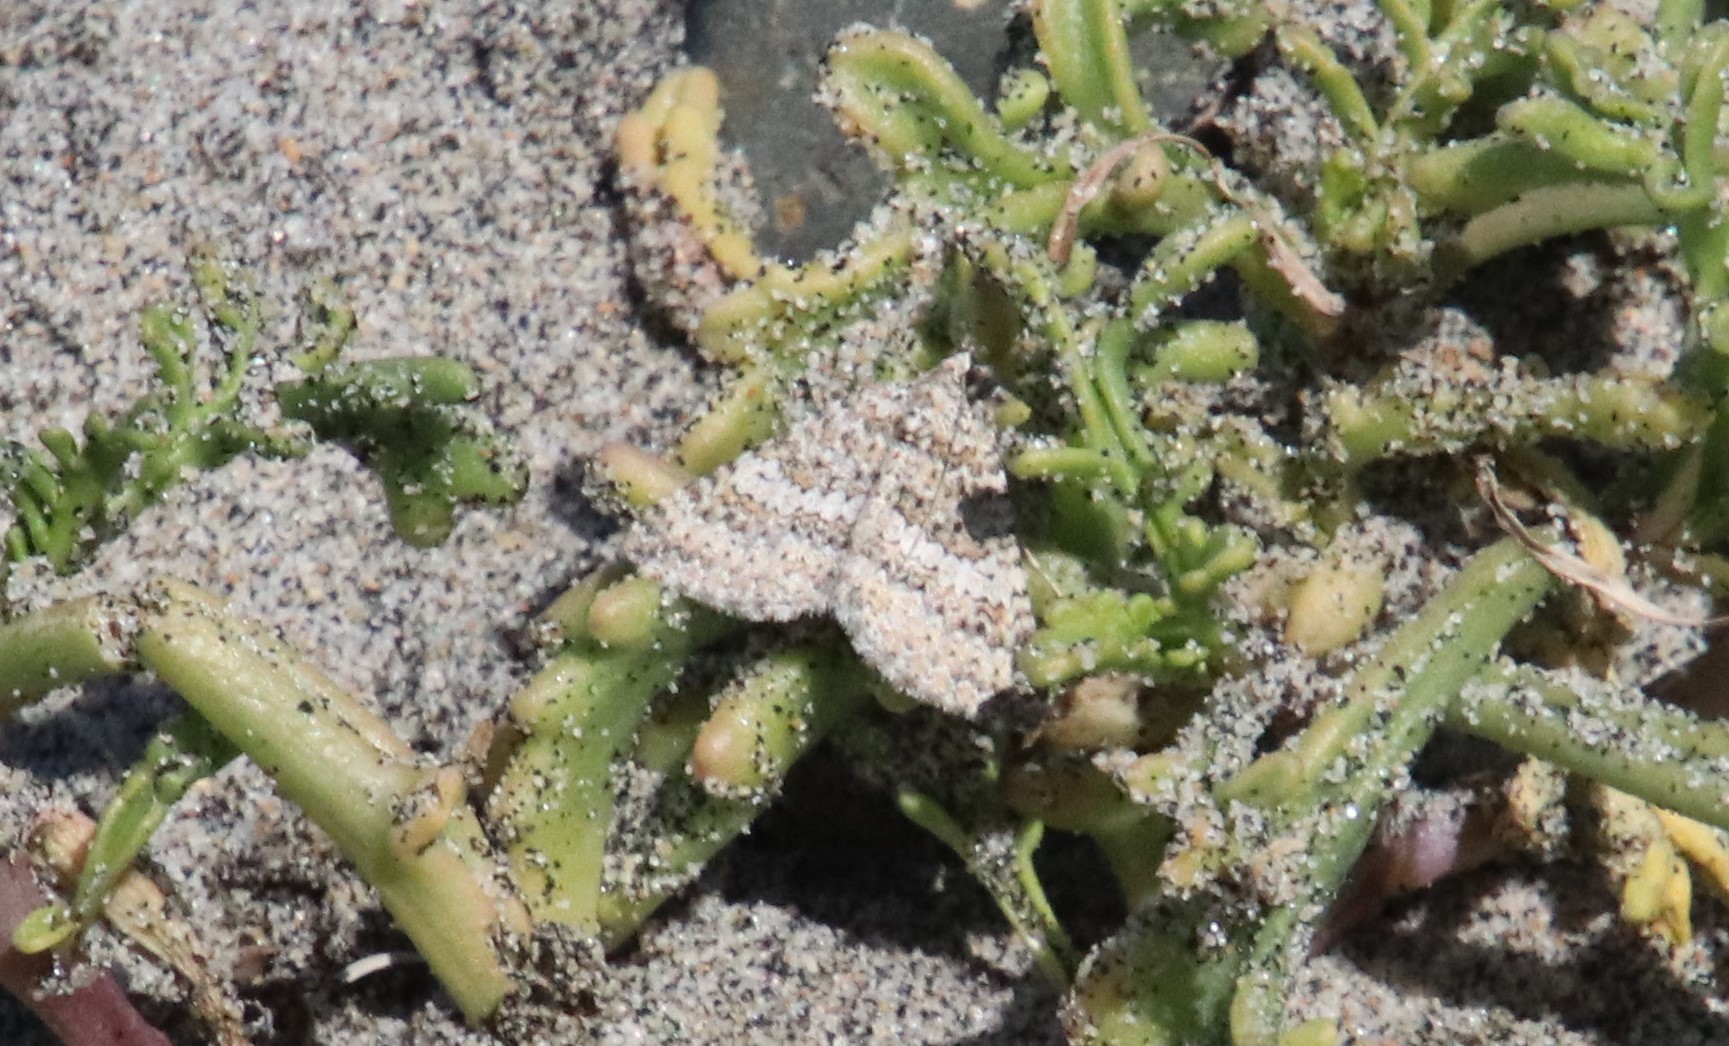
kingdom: Animalia
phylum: Arthropoda
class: Insecta
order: Lepidoptera
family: Geometridae
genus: Euphyia
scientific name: Euphyia implicata
